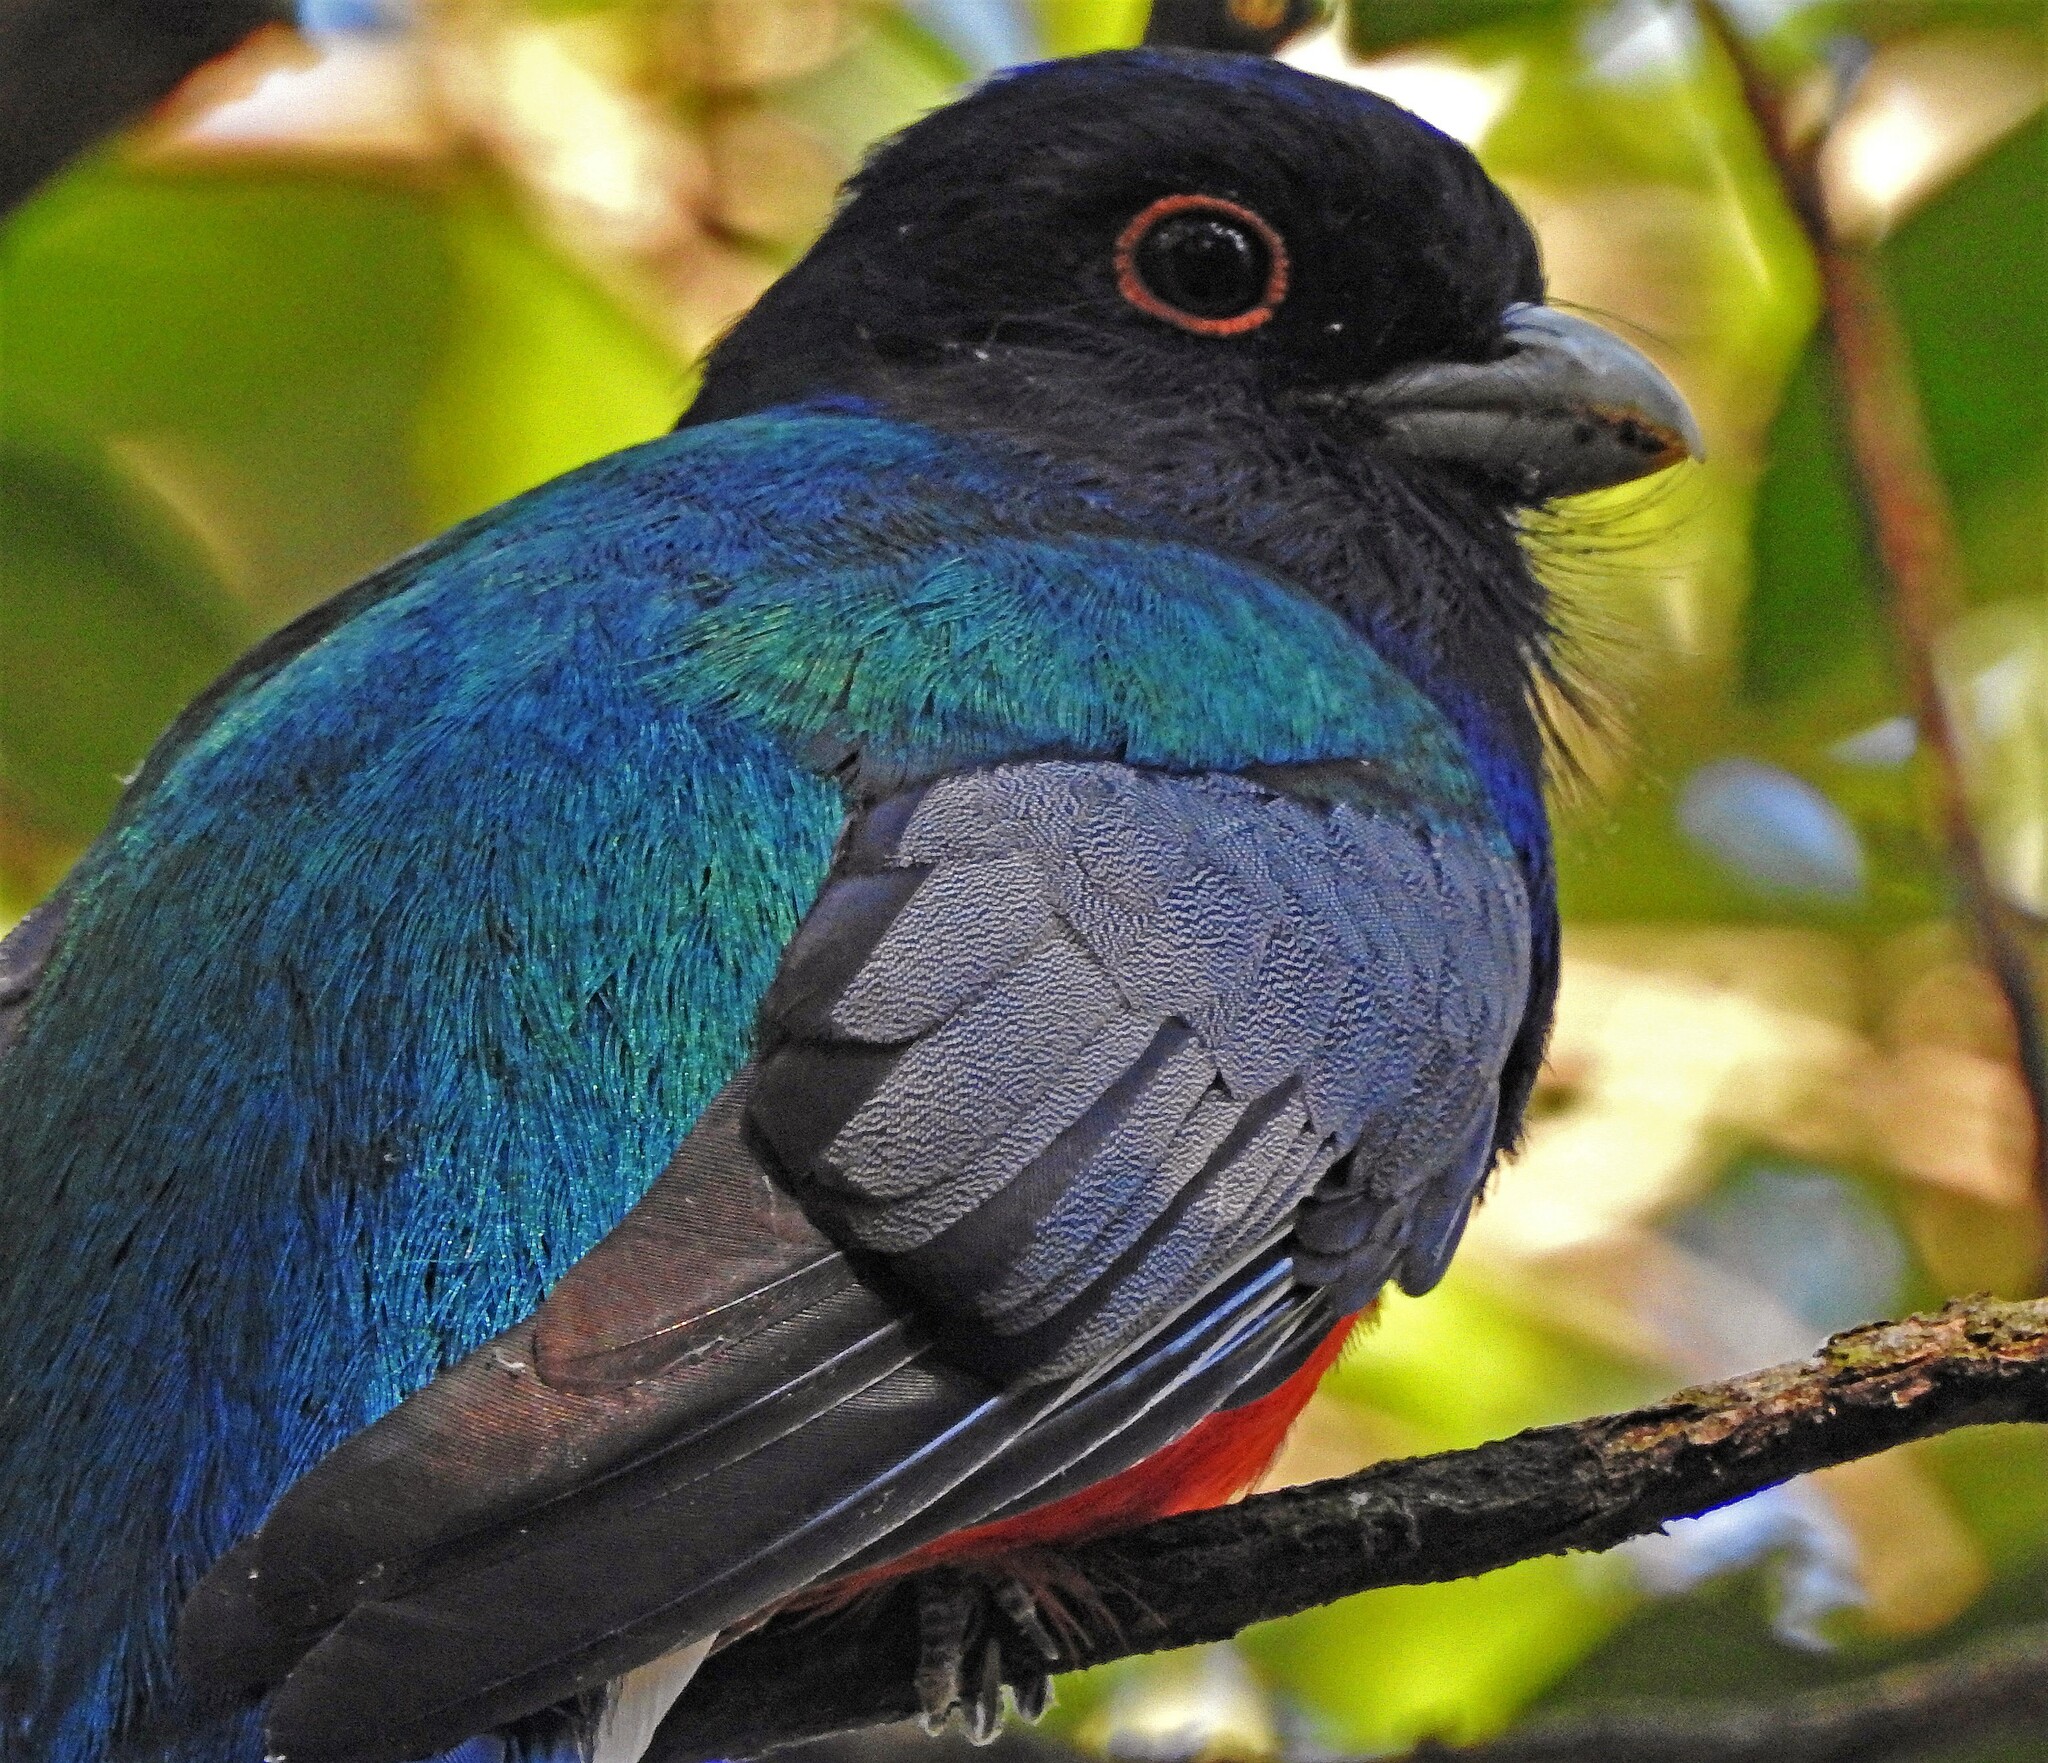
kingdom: Animalia
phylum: Chordata
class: Aves
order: Trogoniformes
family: Trogonidae
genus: Trogon
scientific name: Trogon surrucura
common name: Surucua trogon
